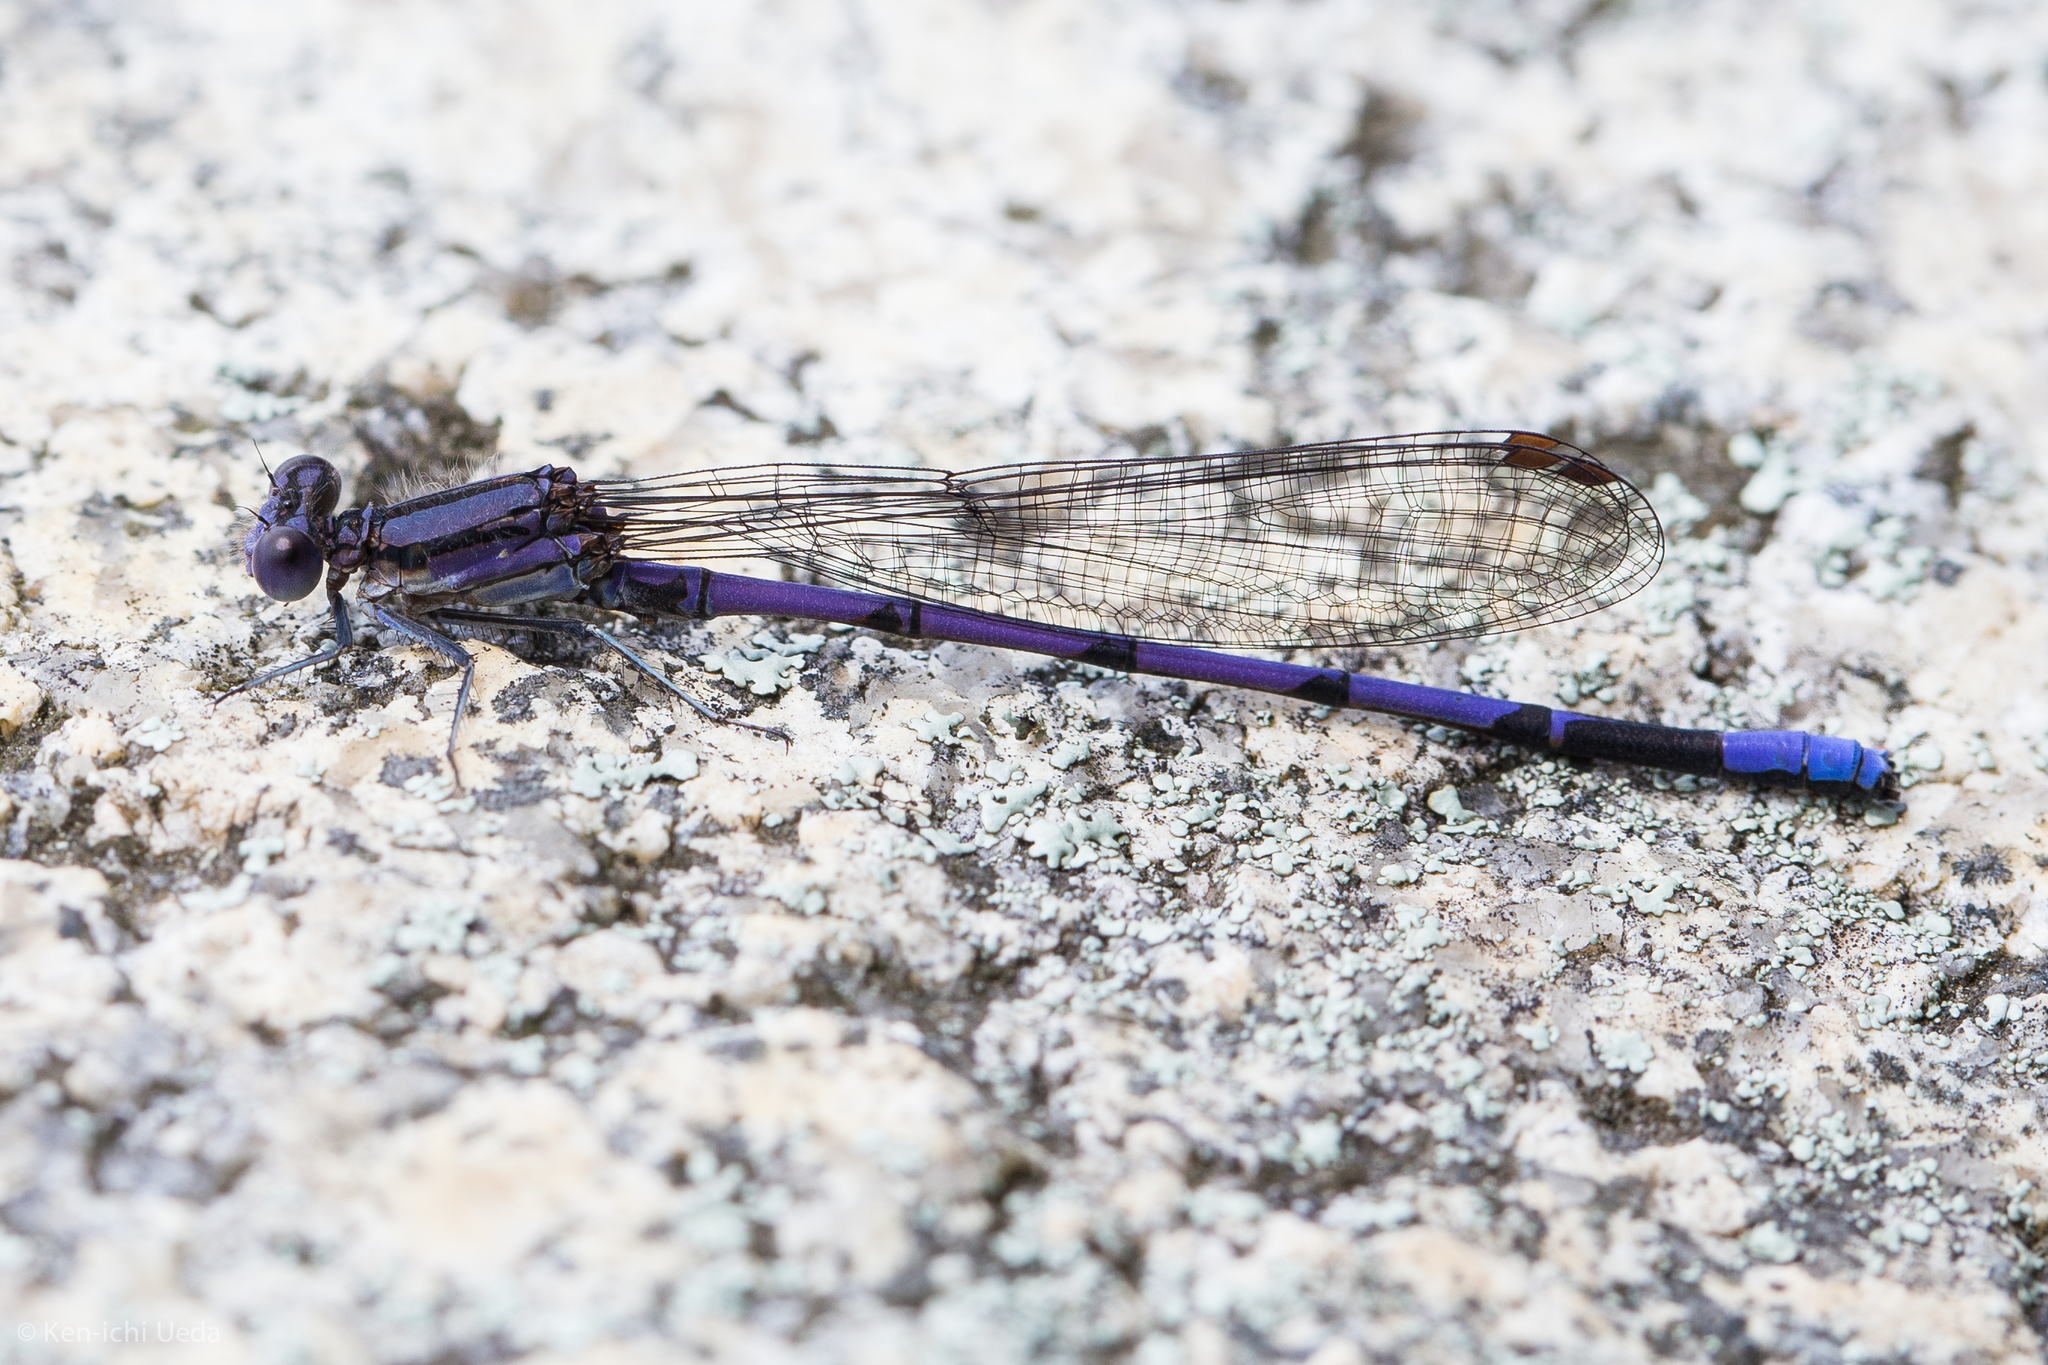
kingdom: Animalia
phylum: Arthropoda
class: Insecta
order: Odonata
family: Coenagrionidae
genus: Argia
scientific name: Argia fumipennis
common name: Variable dancer
